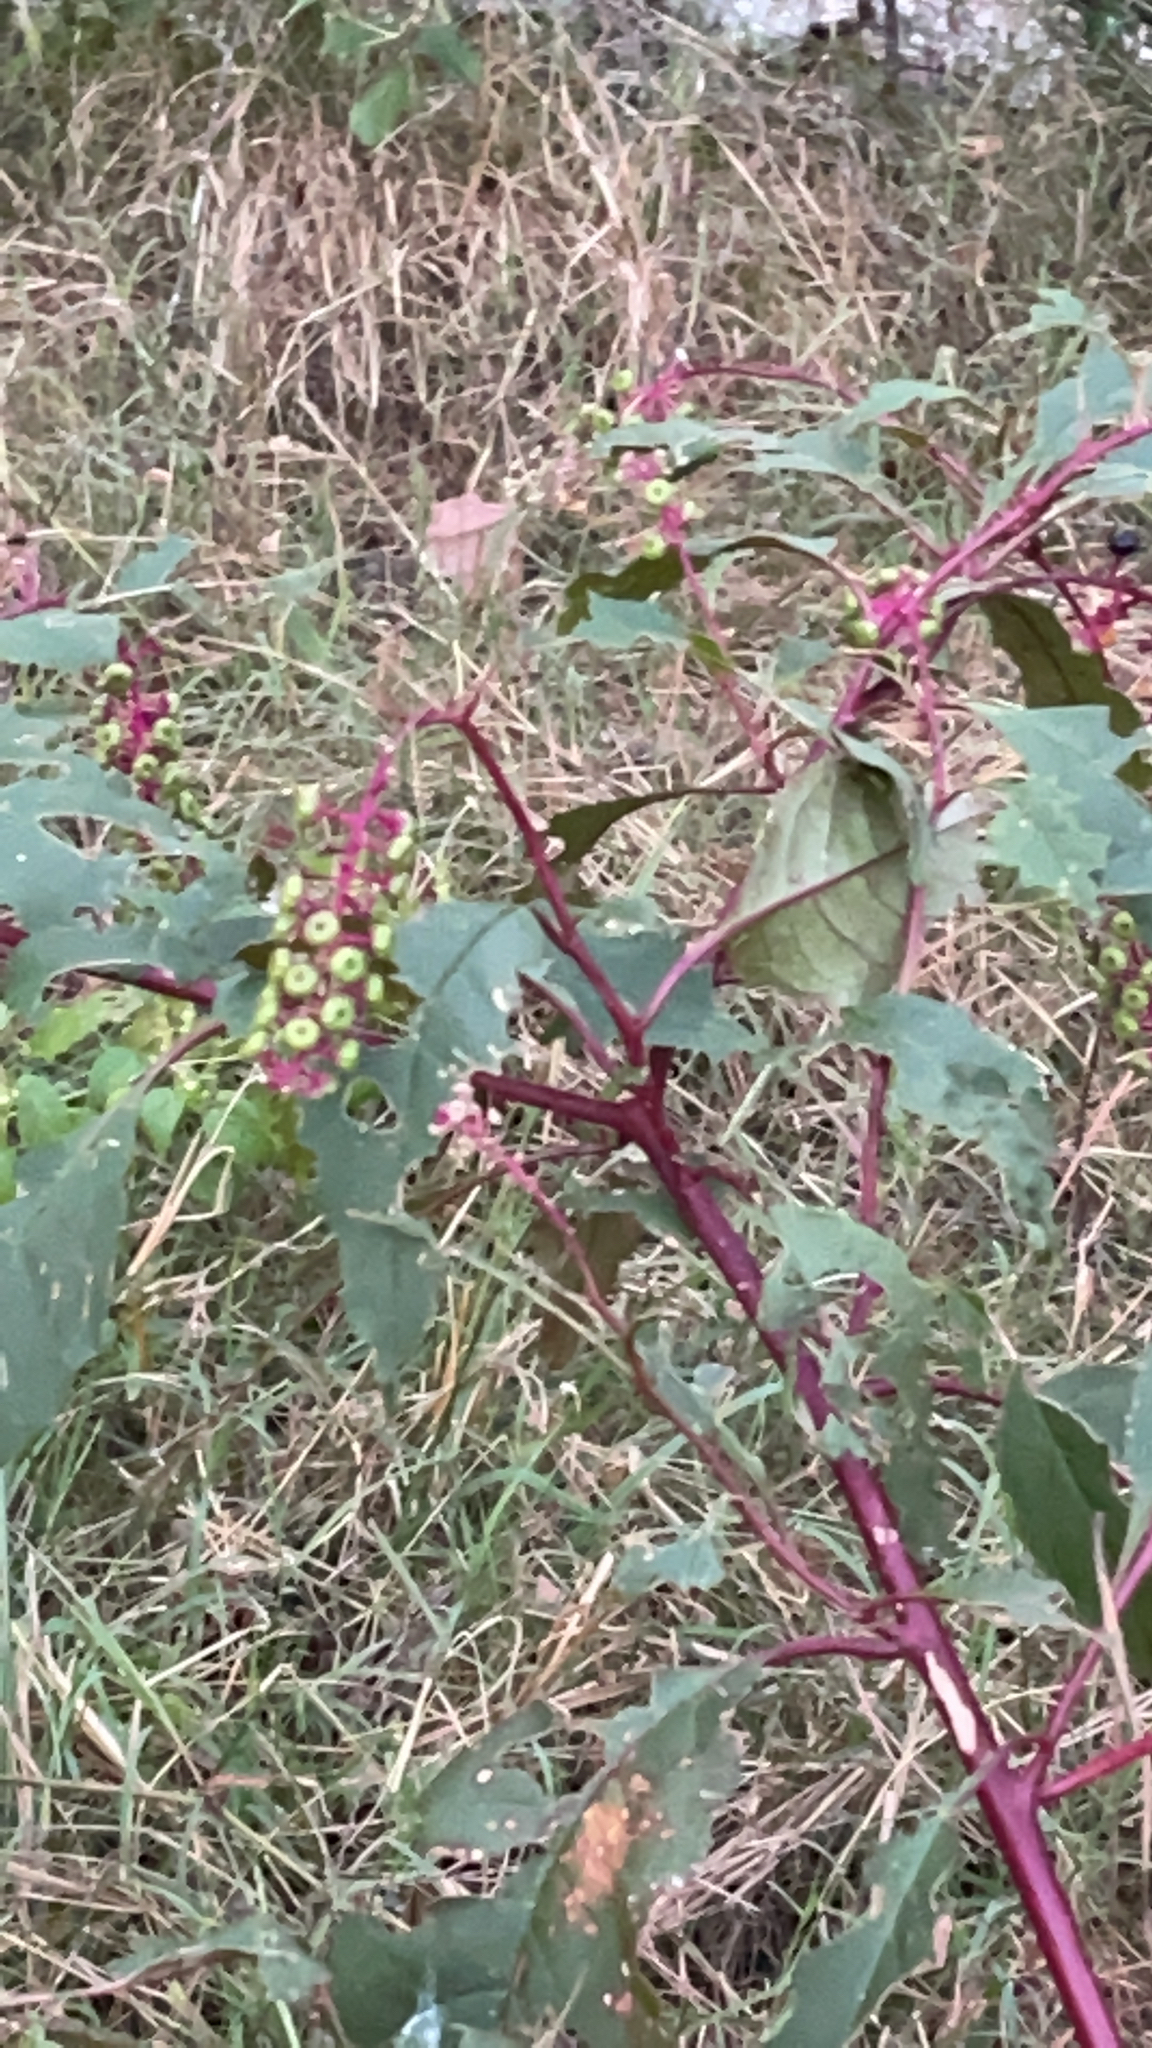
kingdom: Plantae
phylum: Tracheophyta
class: Magnoliopsida
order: Caryophyllales
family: Phytolaccaceae
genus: Phytolacca
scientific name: Phytolacca americana
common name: American pokeweed
